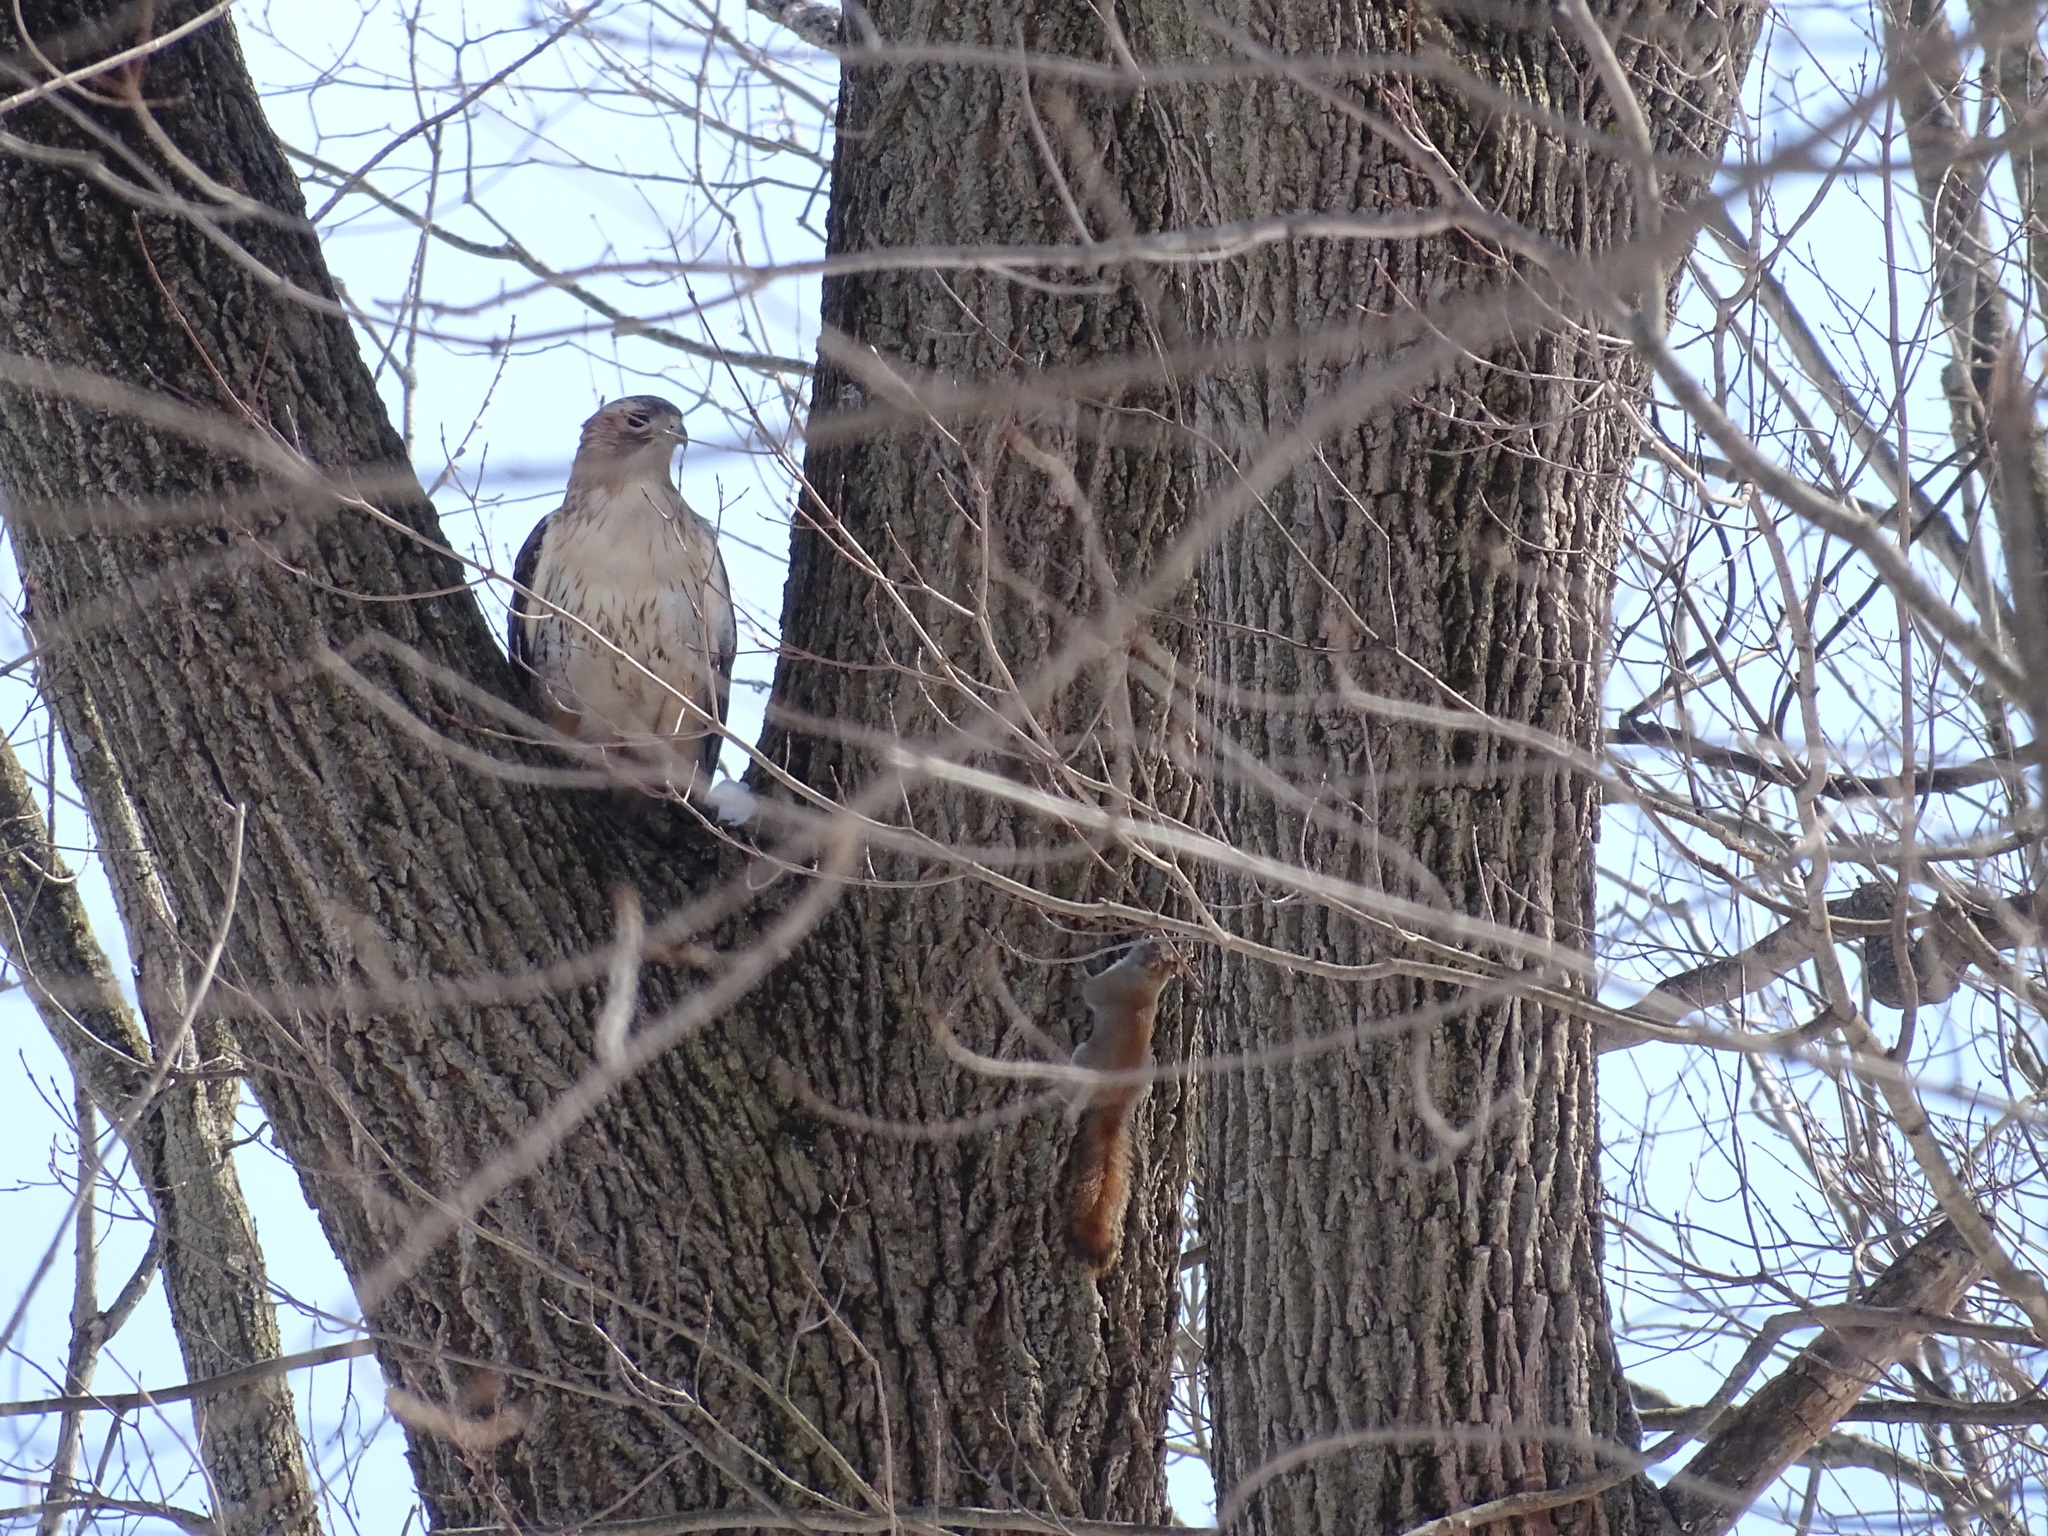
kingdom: Animalia
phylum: Chordata
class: Aves
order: Accipitriformes
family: Accipitridae
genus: Buteo
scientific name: Buteo jamaicensis
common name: Red-tailed hawk
